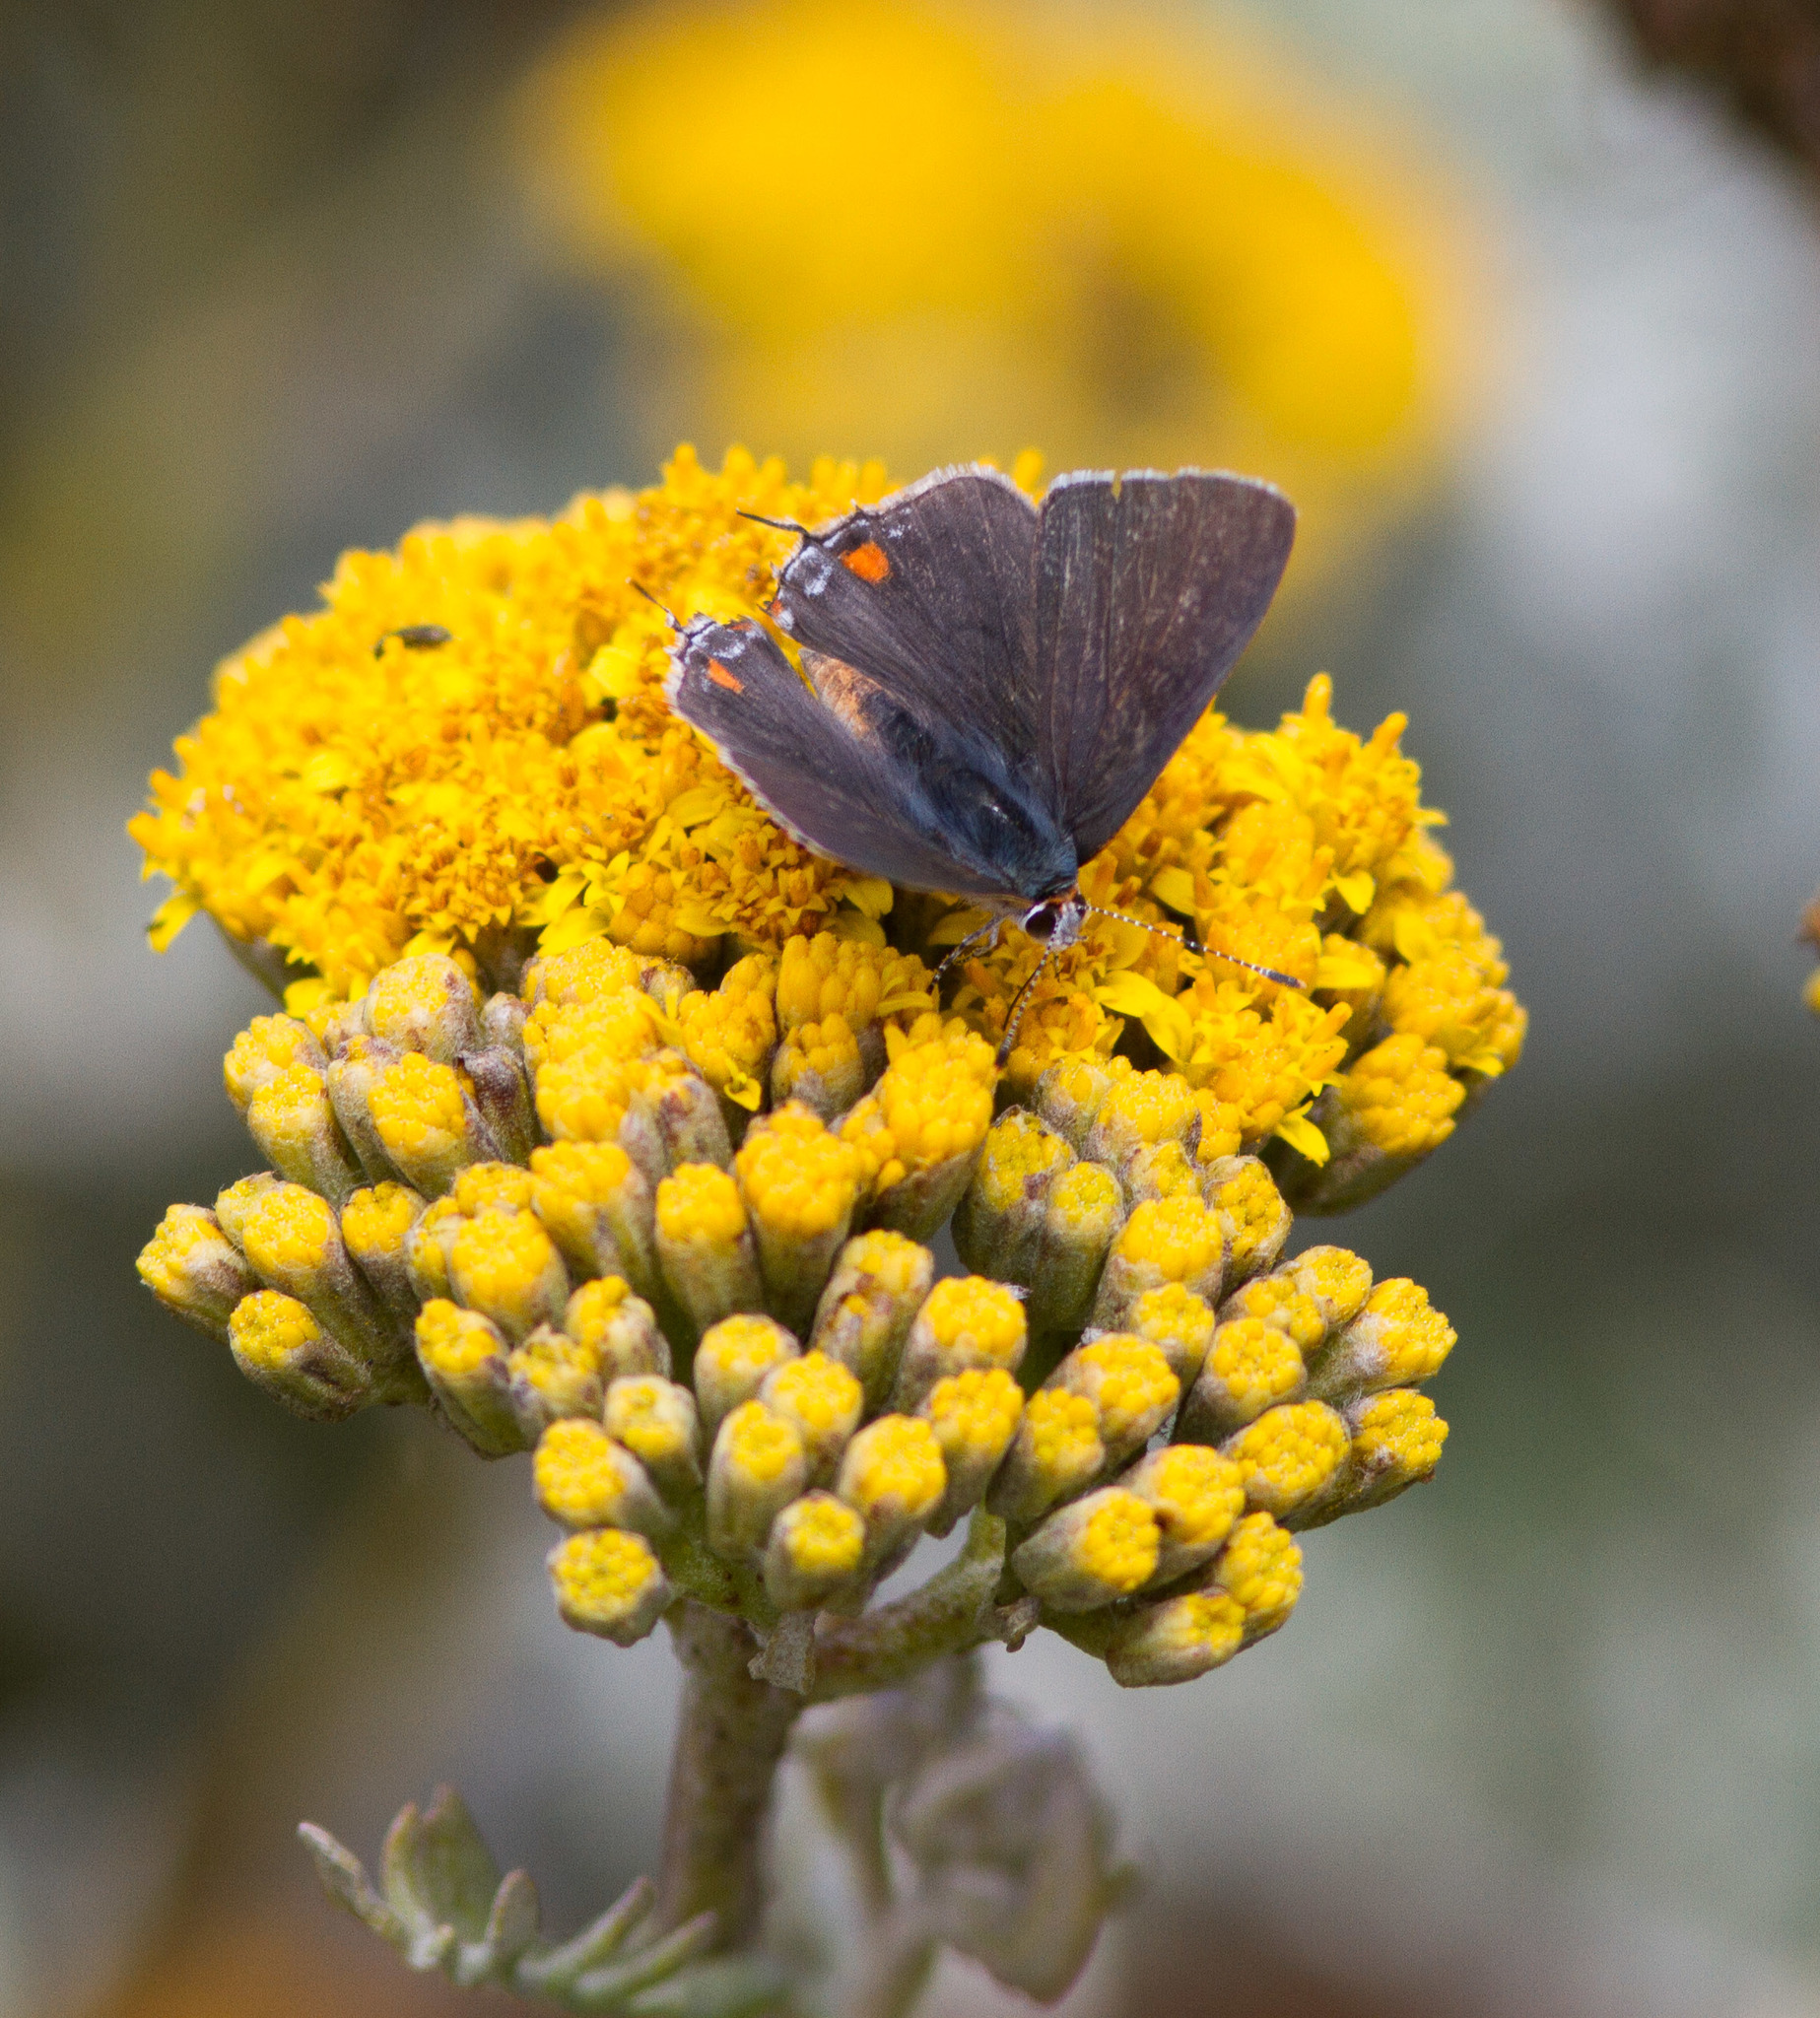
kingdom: Animalia
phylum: Arthropoda
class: Insecta
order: Lepidoptera
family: Lycaenidae
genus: Strymon
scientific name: Strymon melinus
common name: Gray hairstreak
